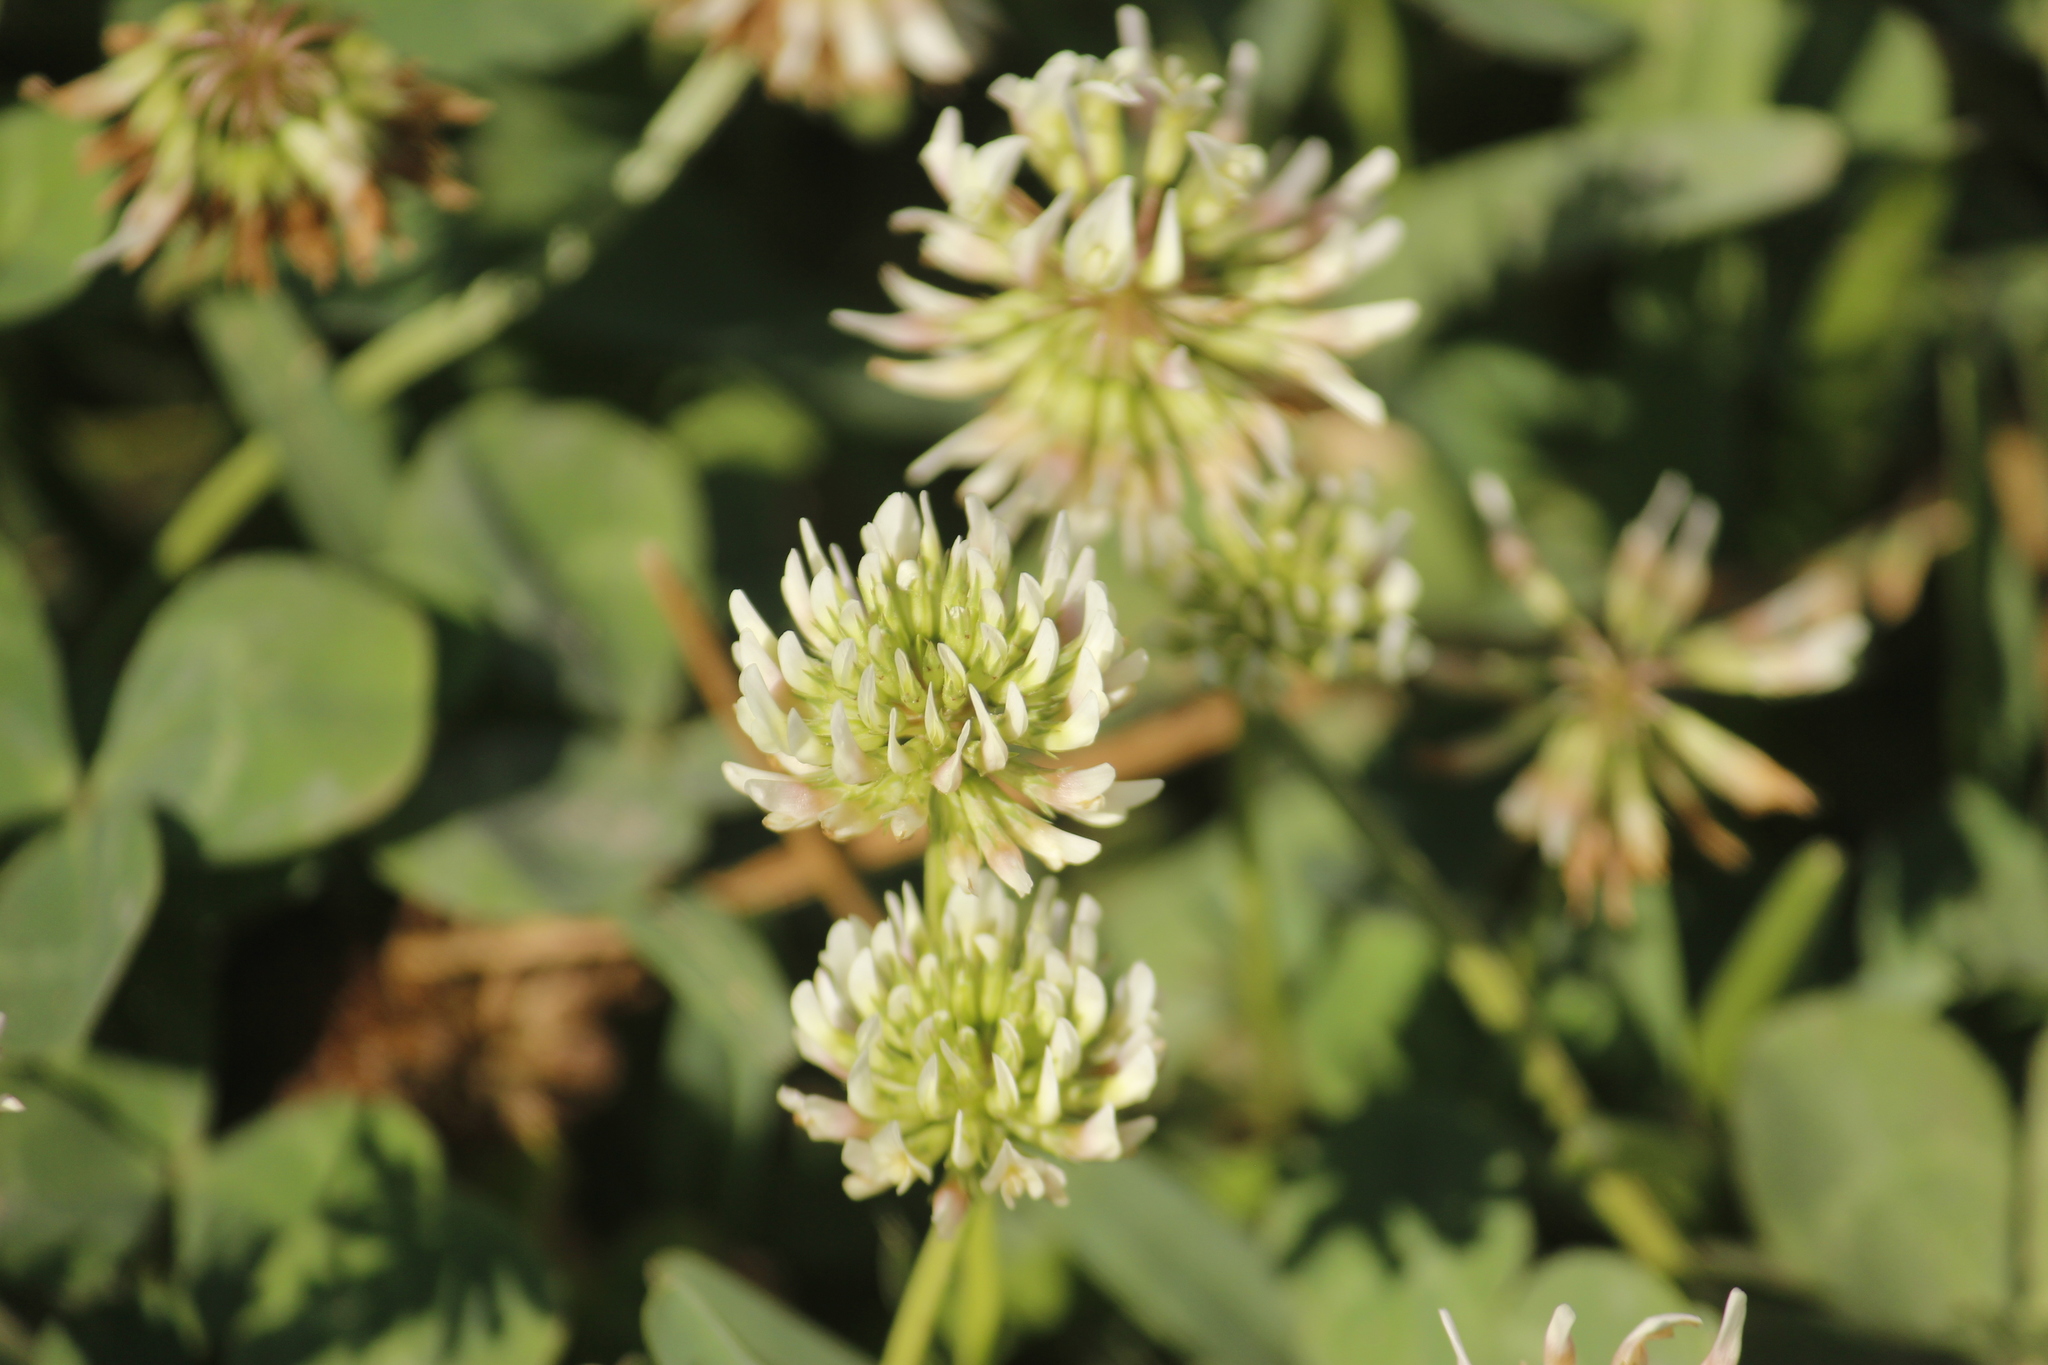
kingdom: Plantae
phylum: Tracheophyta
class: Magnoliopsida
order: Fabales
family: Fabaceae
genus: Trifolium
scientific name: Trifolium repens
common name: White clover
